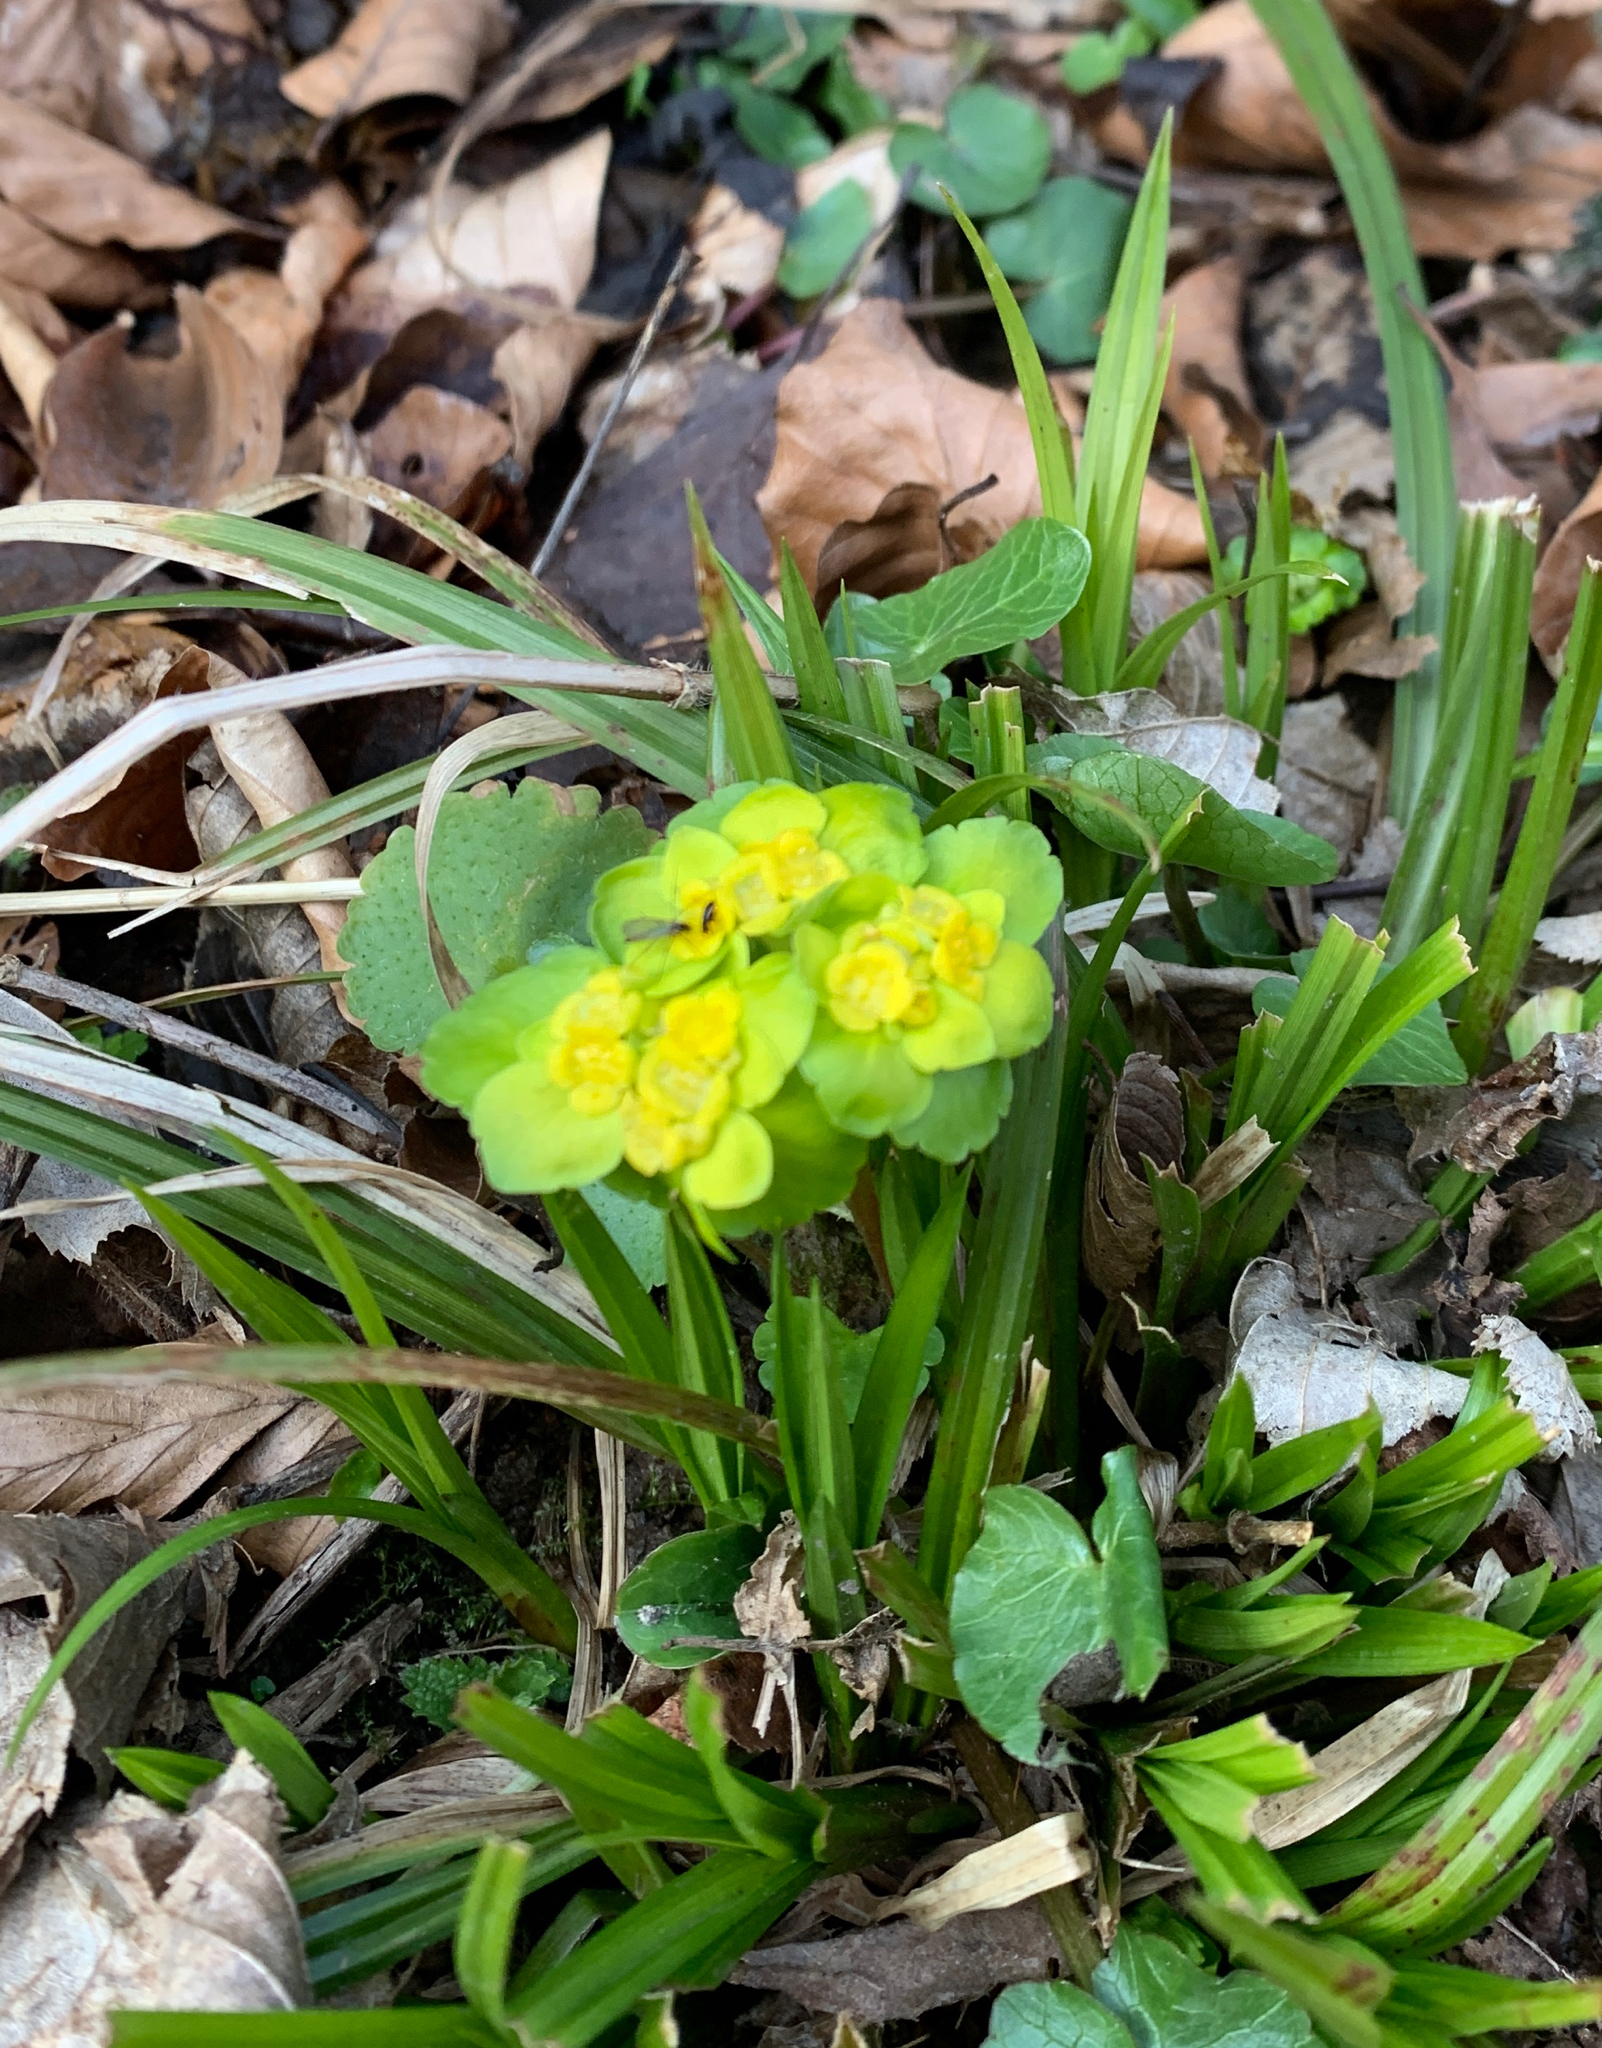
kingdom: Plantae
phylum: Tracheophyta
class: Magnoliopsida
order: Saxifragales
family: Saxifragaceae
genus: Chrysosplenium
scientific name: Chrysosplenium alternifolium
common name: Alternate-leaved golden-saxifrage
